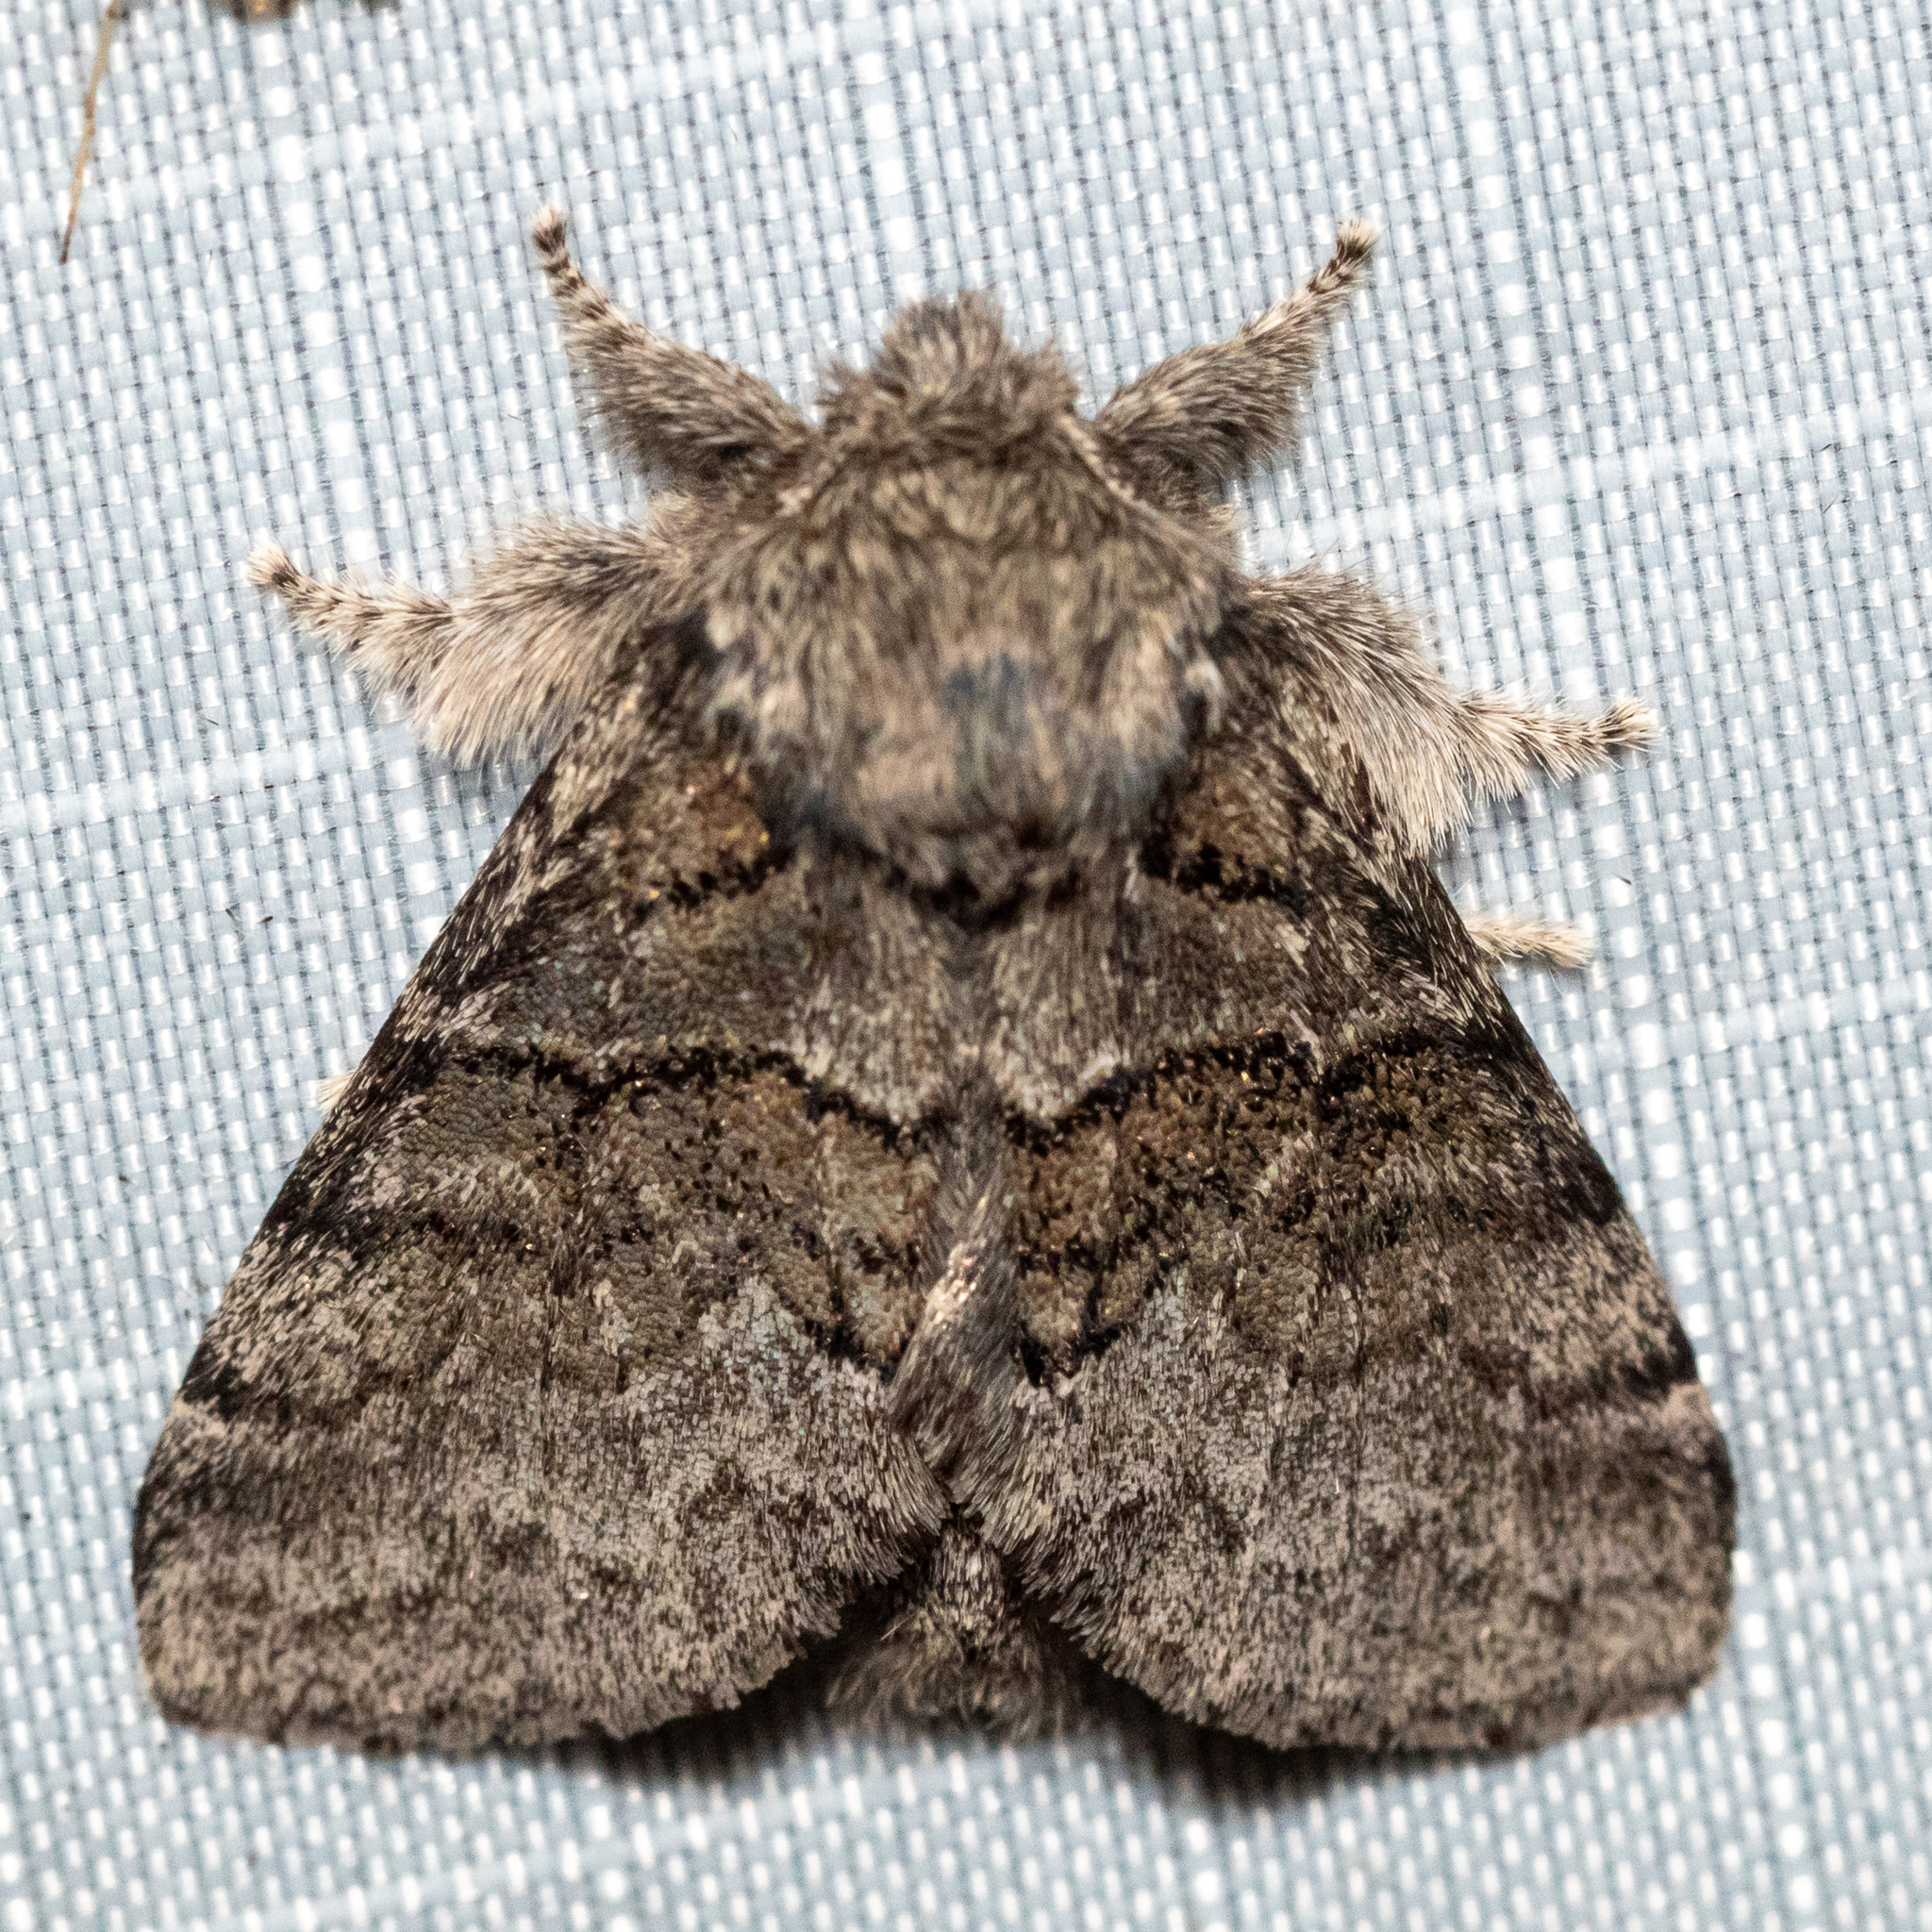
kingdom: Animalia
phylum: Arthropoda
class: Insecta
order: Lepidoptera
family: Notodontidae
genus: Gluphisia
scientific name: Gluphisia septentrionis
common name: Common gluphisia
